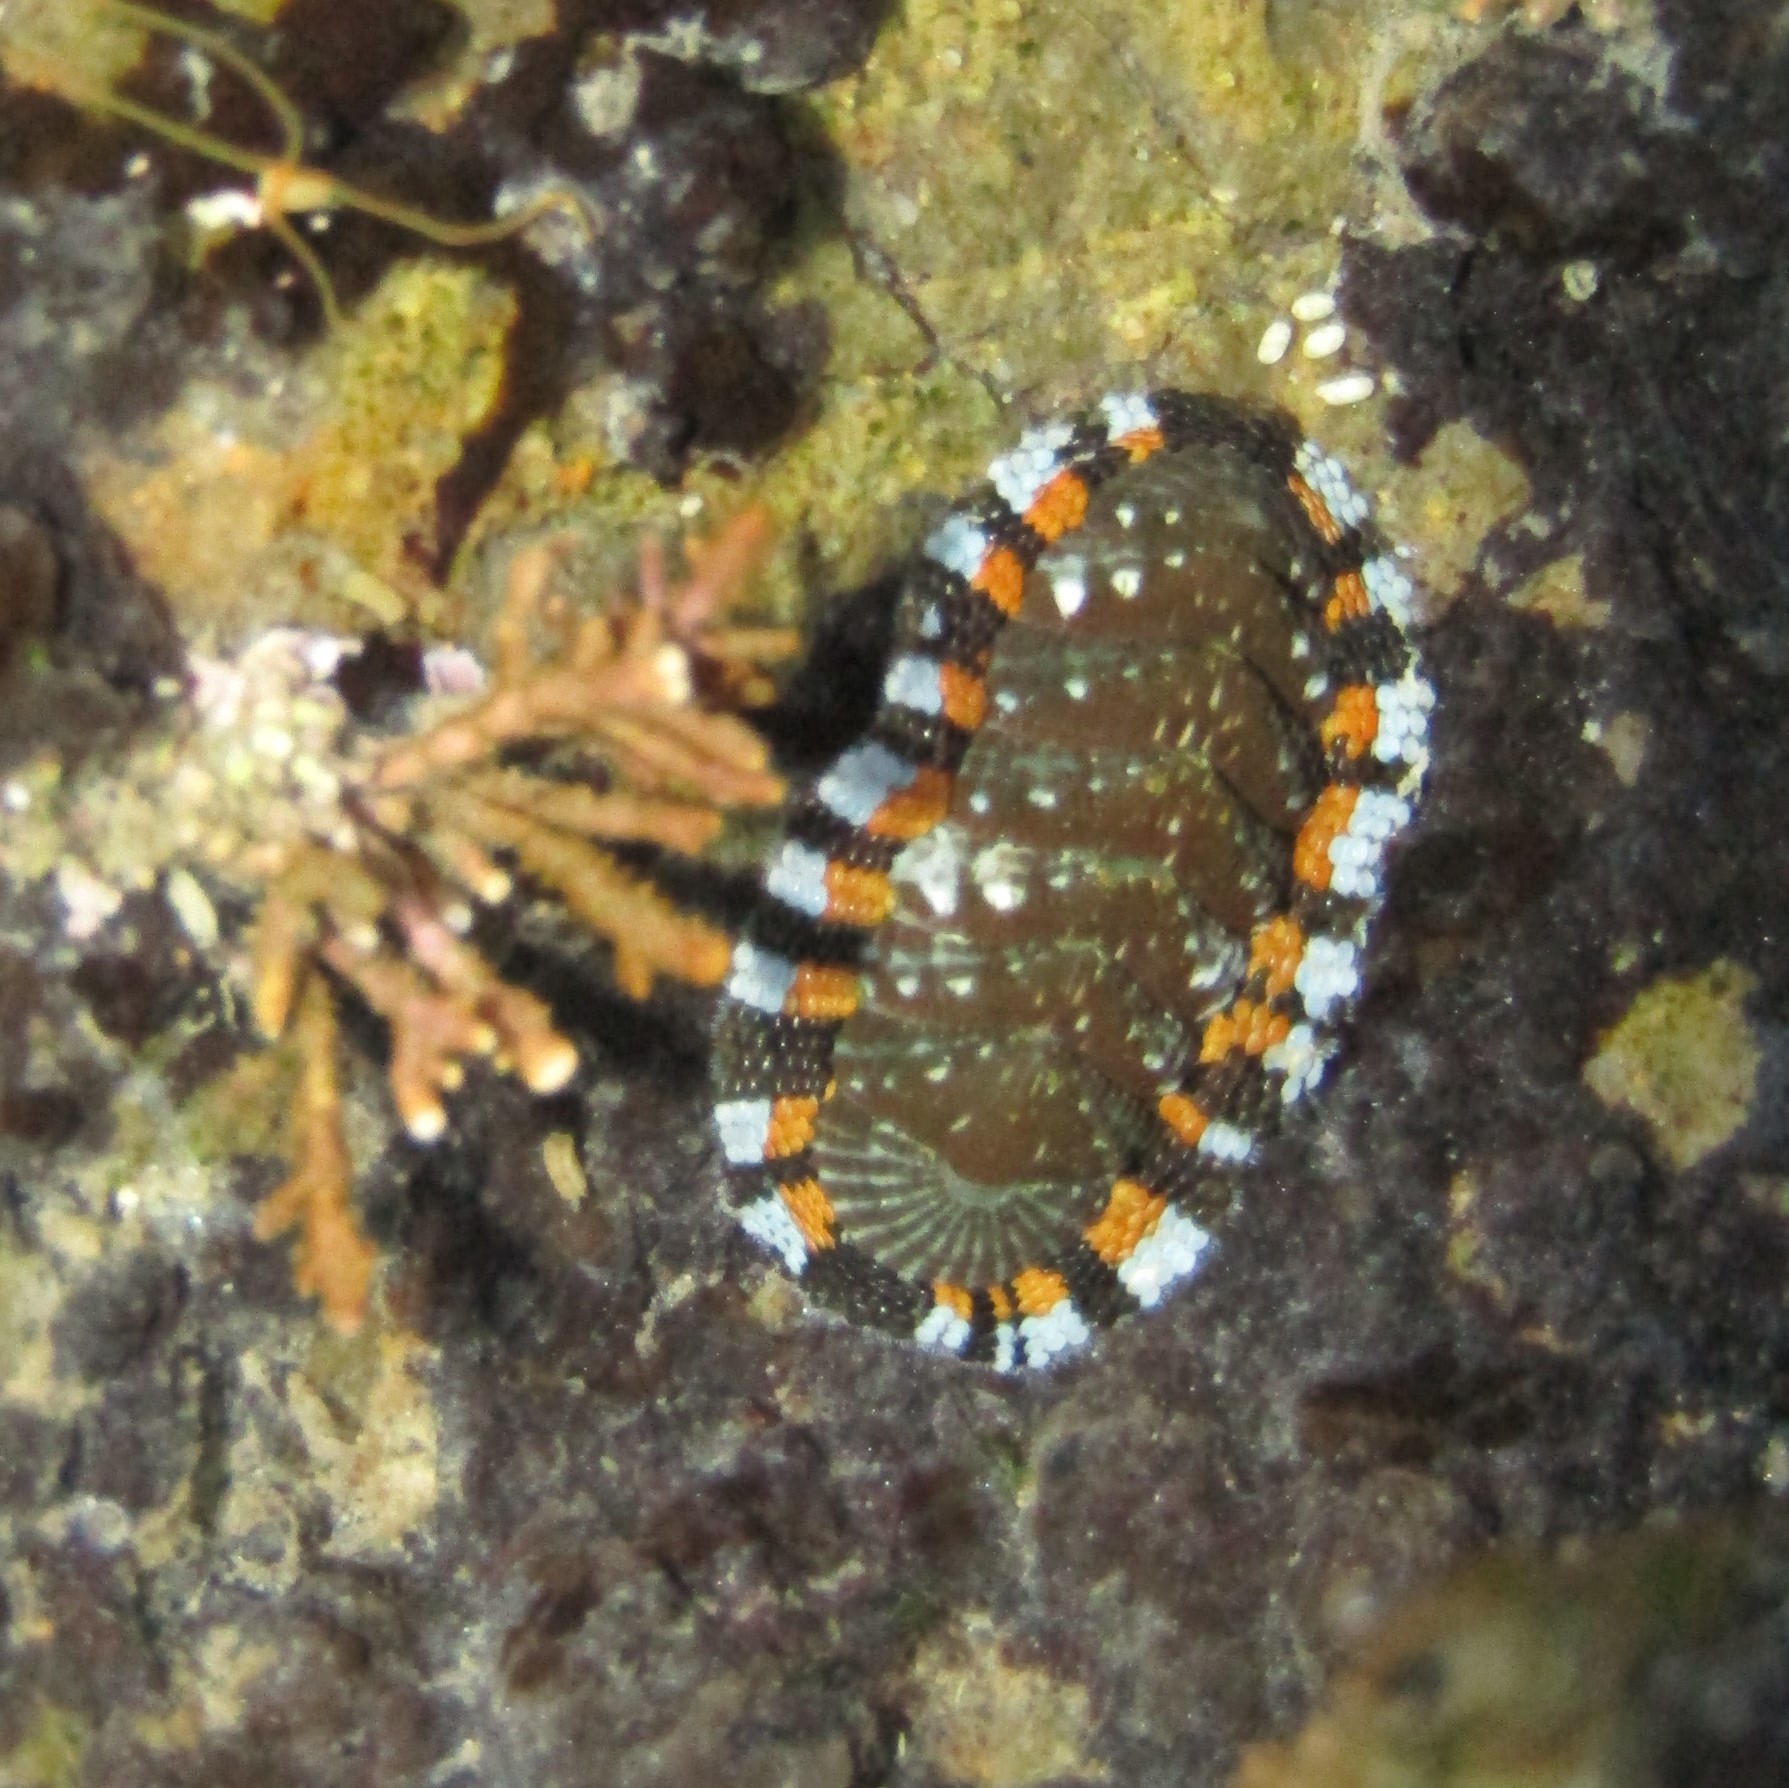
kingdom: Animalia
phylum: Mollusca
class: Polyplacophora
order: Chitonida
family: Chitonidae
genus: Sypharochiton
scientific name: Sypharochiton sinclairi
